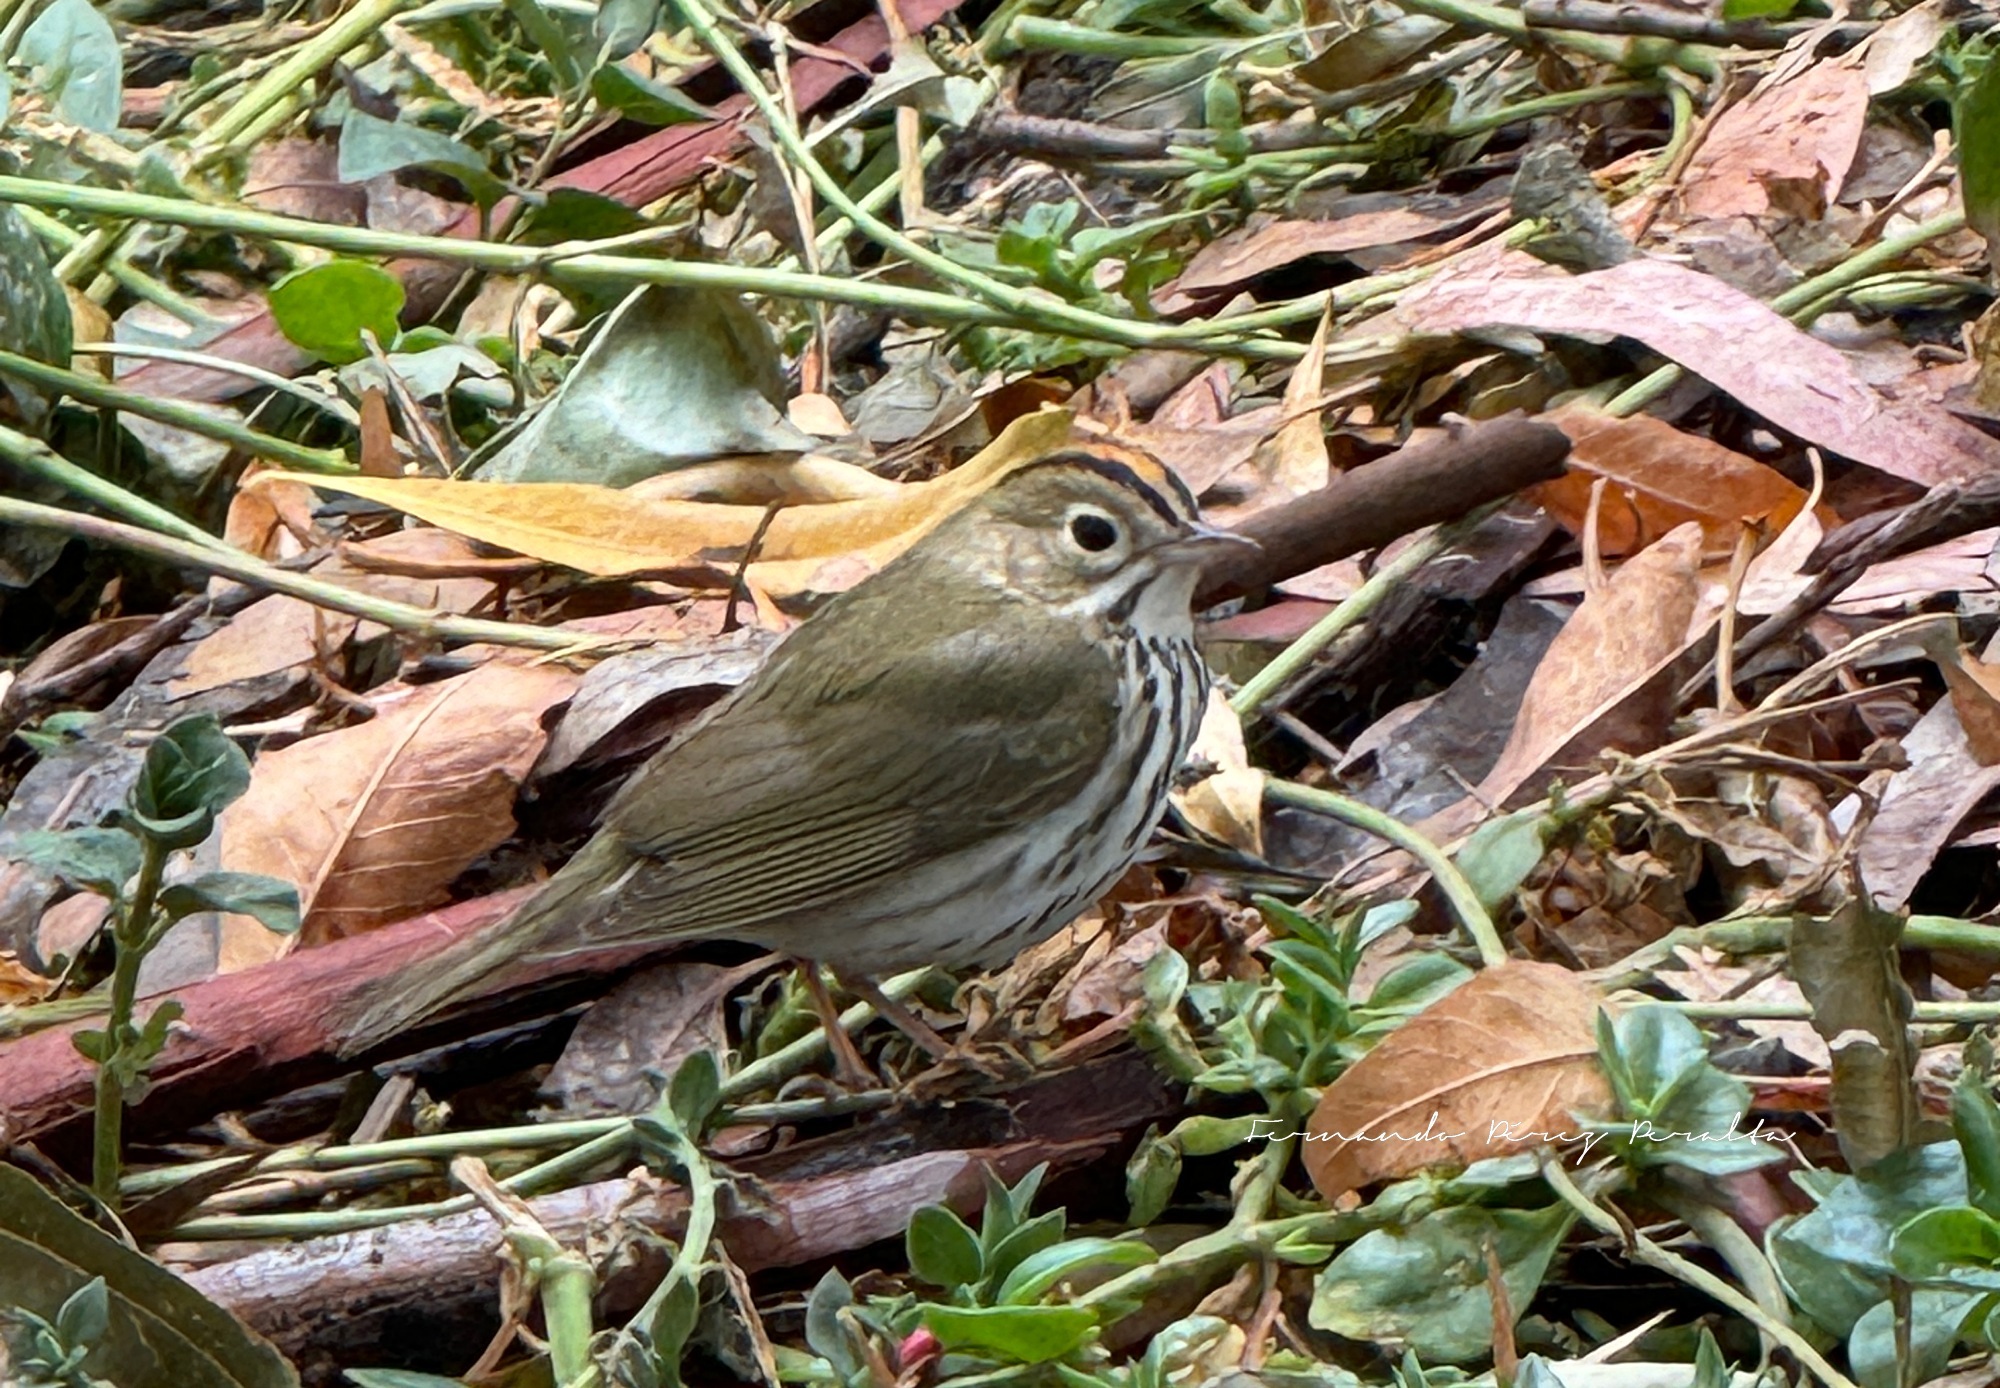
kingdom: Animalia
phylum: Chordata
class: Aves
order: Passeriformes
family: Parulidae
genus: Seiurus
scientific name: Seiurus aurocapilla
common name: Ovenbird
